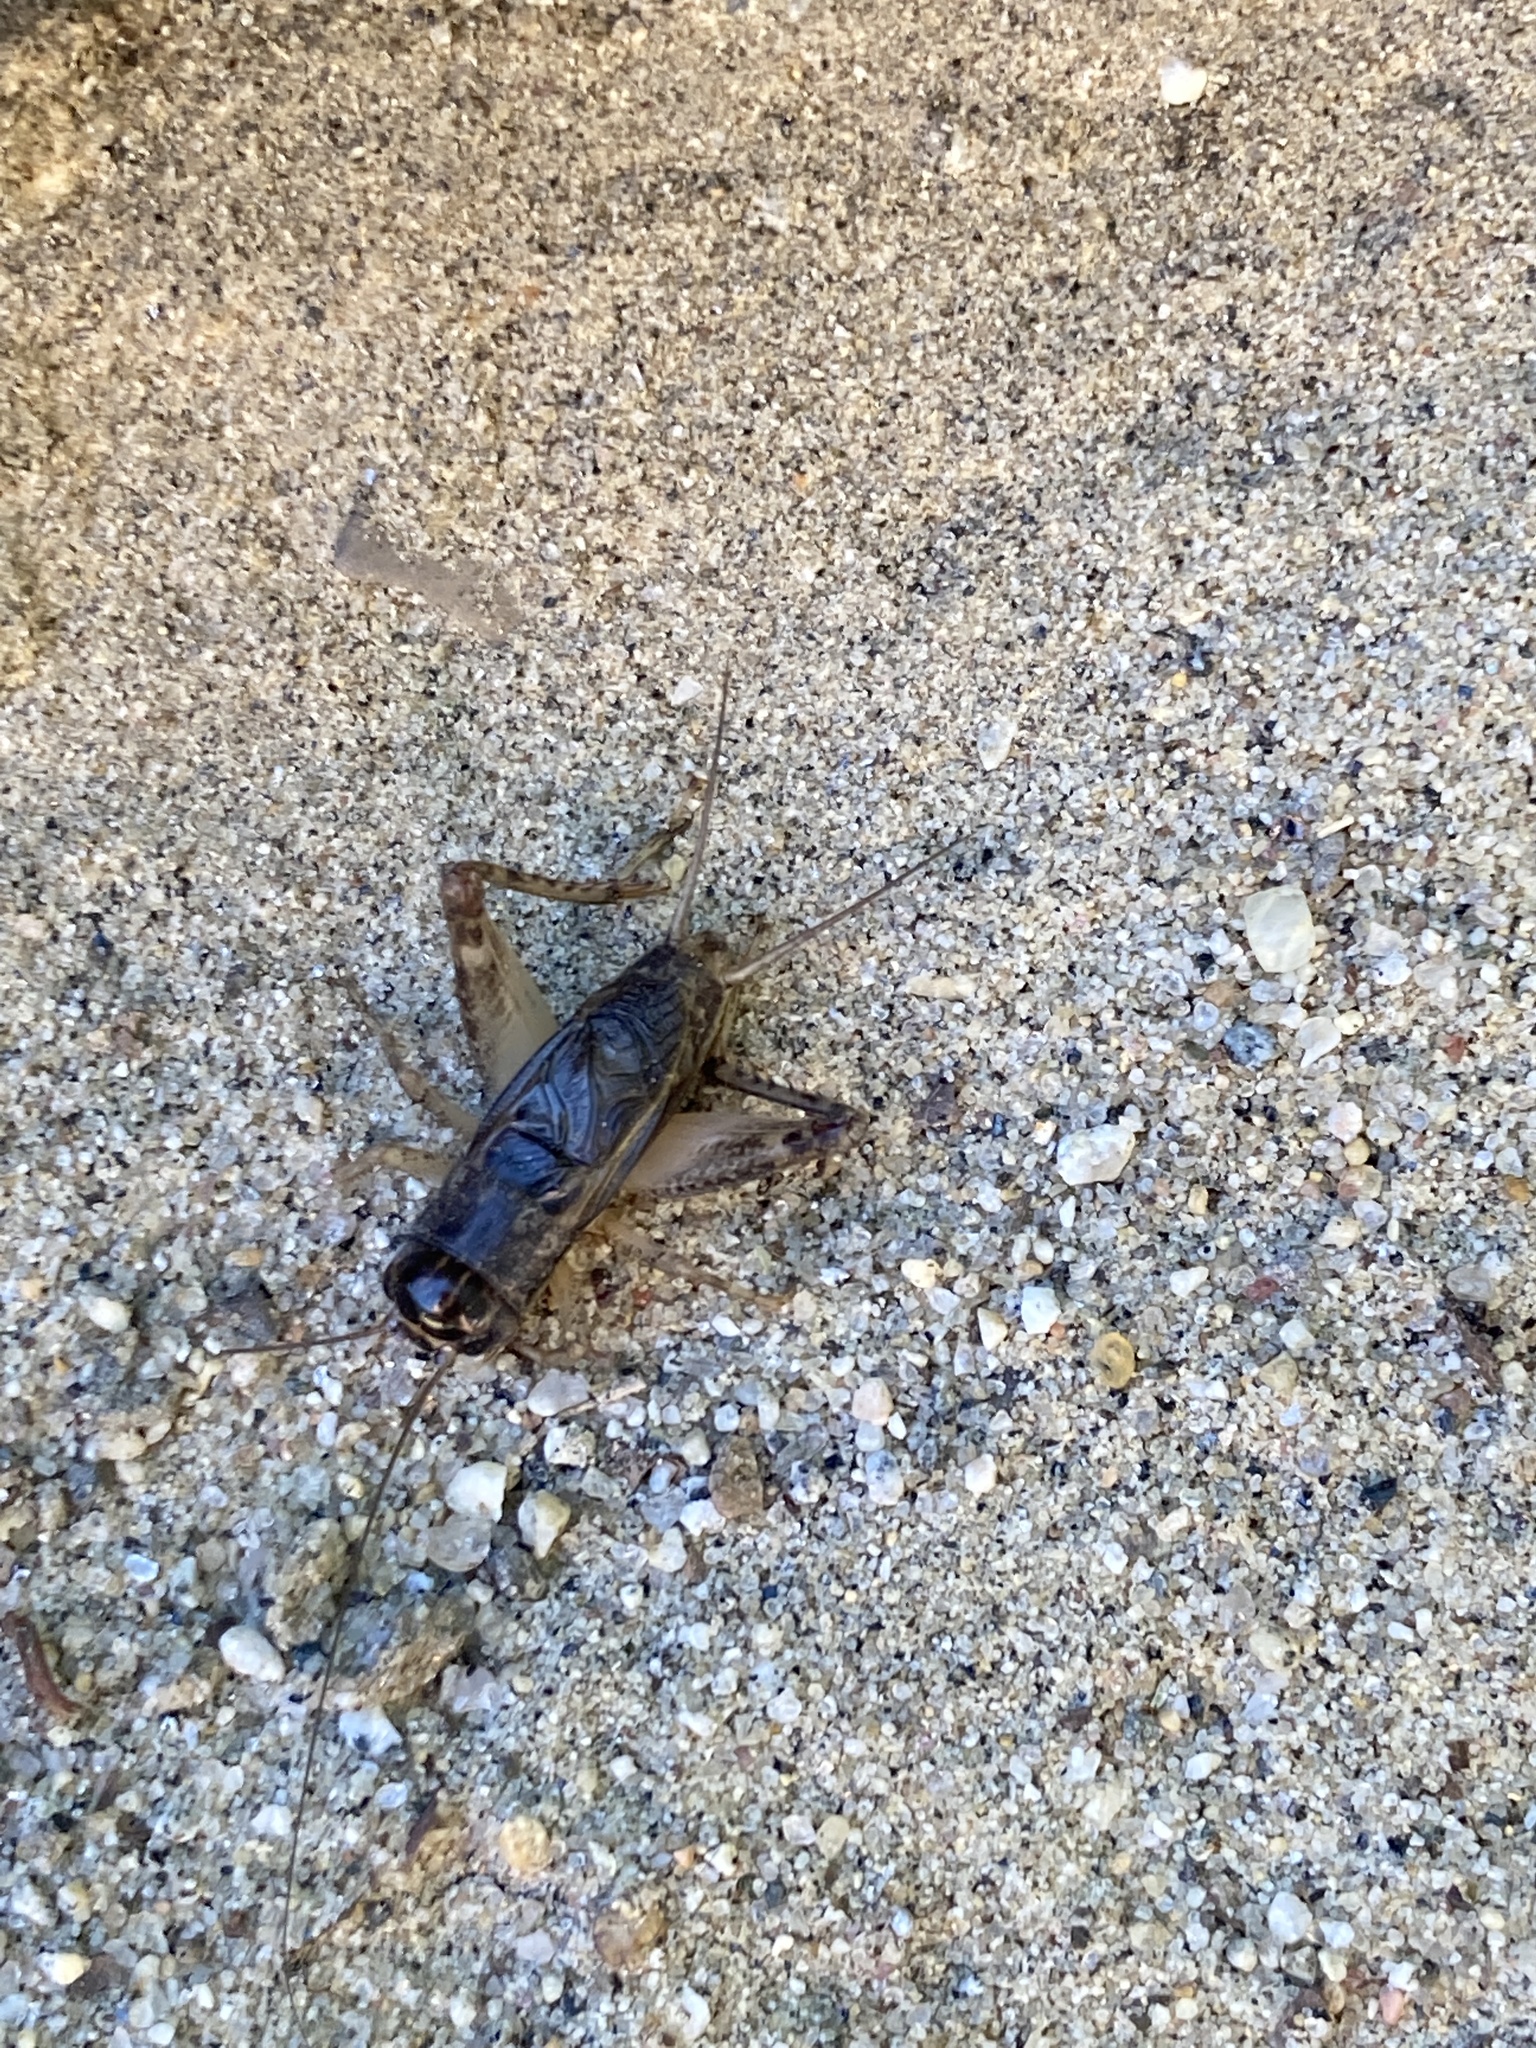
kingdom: Animalia
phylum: Arthropoda
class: Insecta
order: Orthoptera
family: Gryllidae
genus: Velarifictorus
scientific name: Velarifictorus micado
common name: Japanese burrowing cricket
